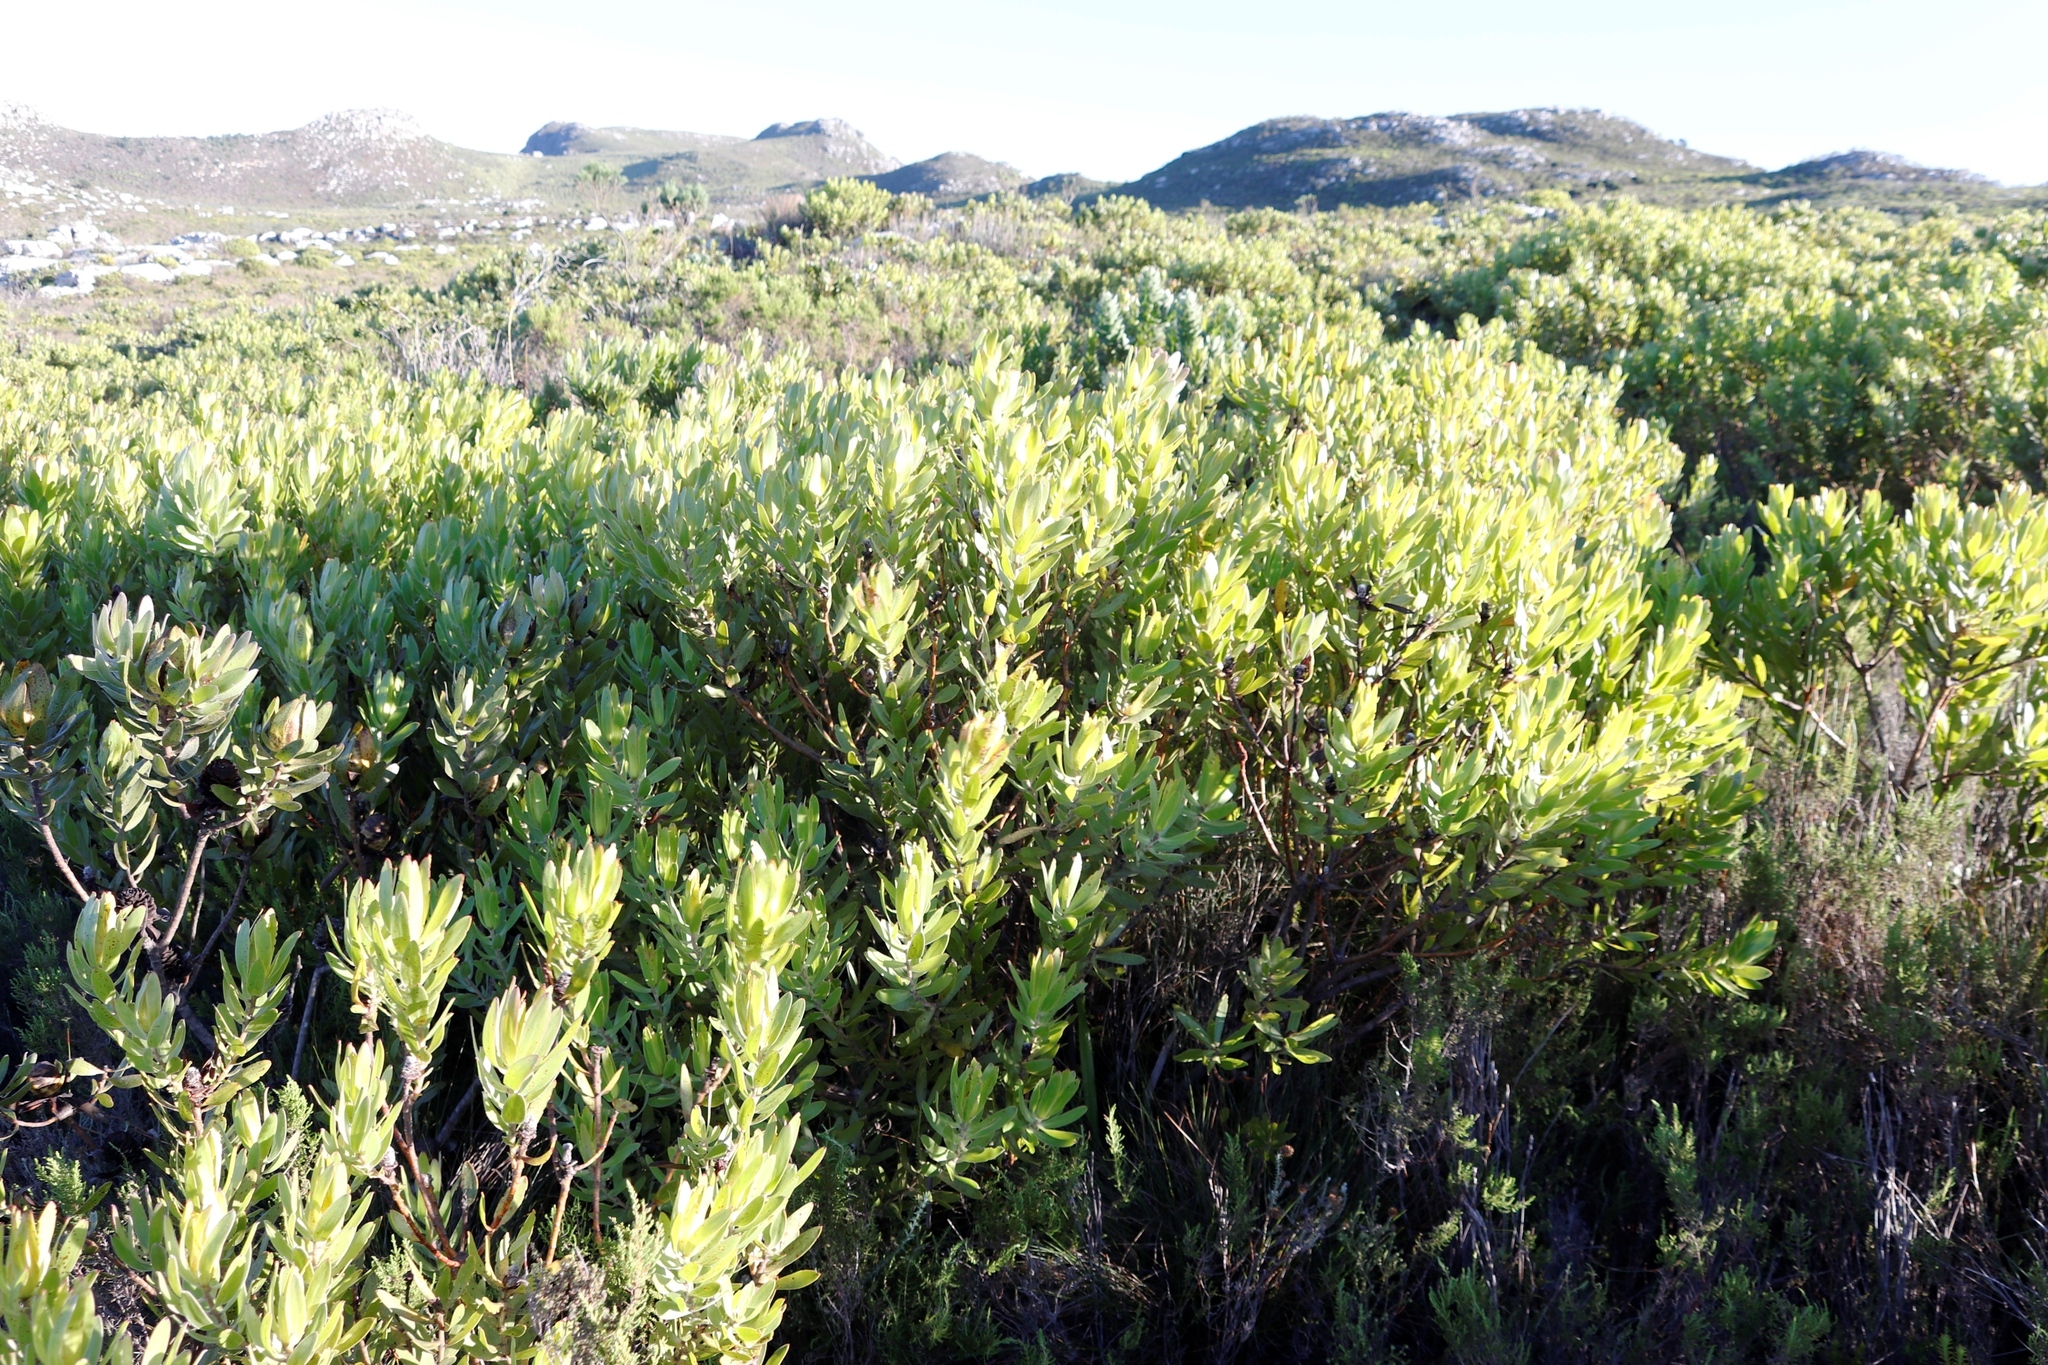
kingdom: Plantae
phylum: Tracheophyta
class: Magnoliopsida
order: Proteales
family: Proteaceae
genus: Leucadendron
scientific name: Leucadendron laureolum
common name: Golden sunshinebush
